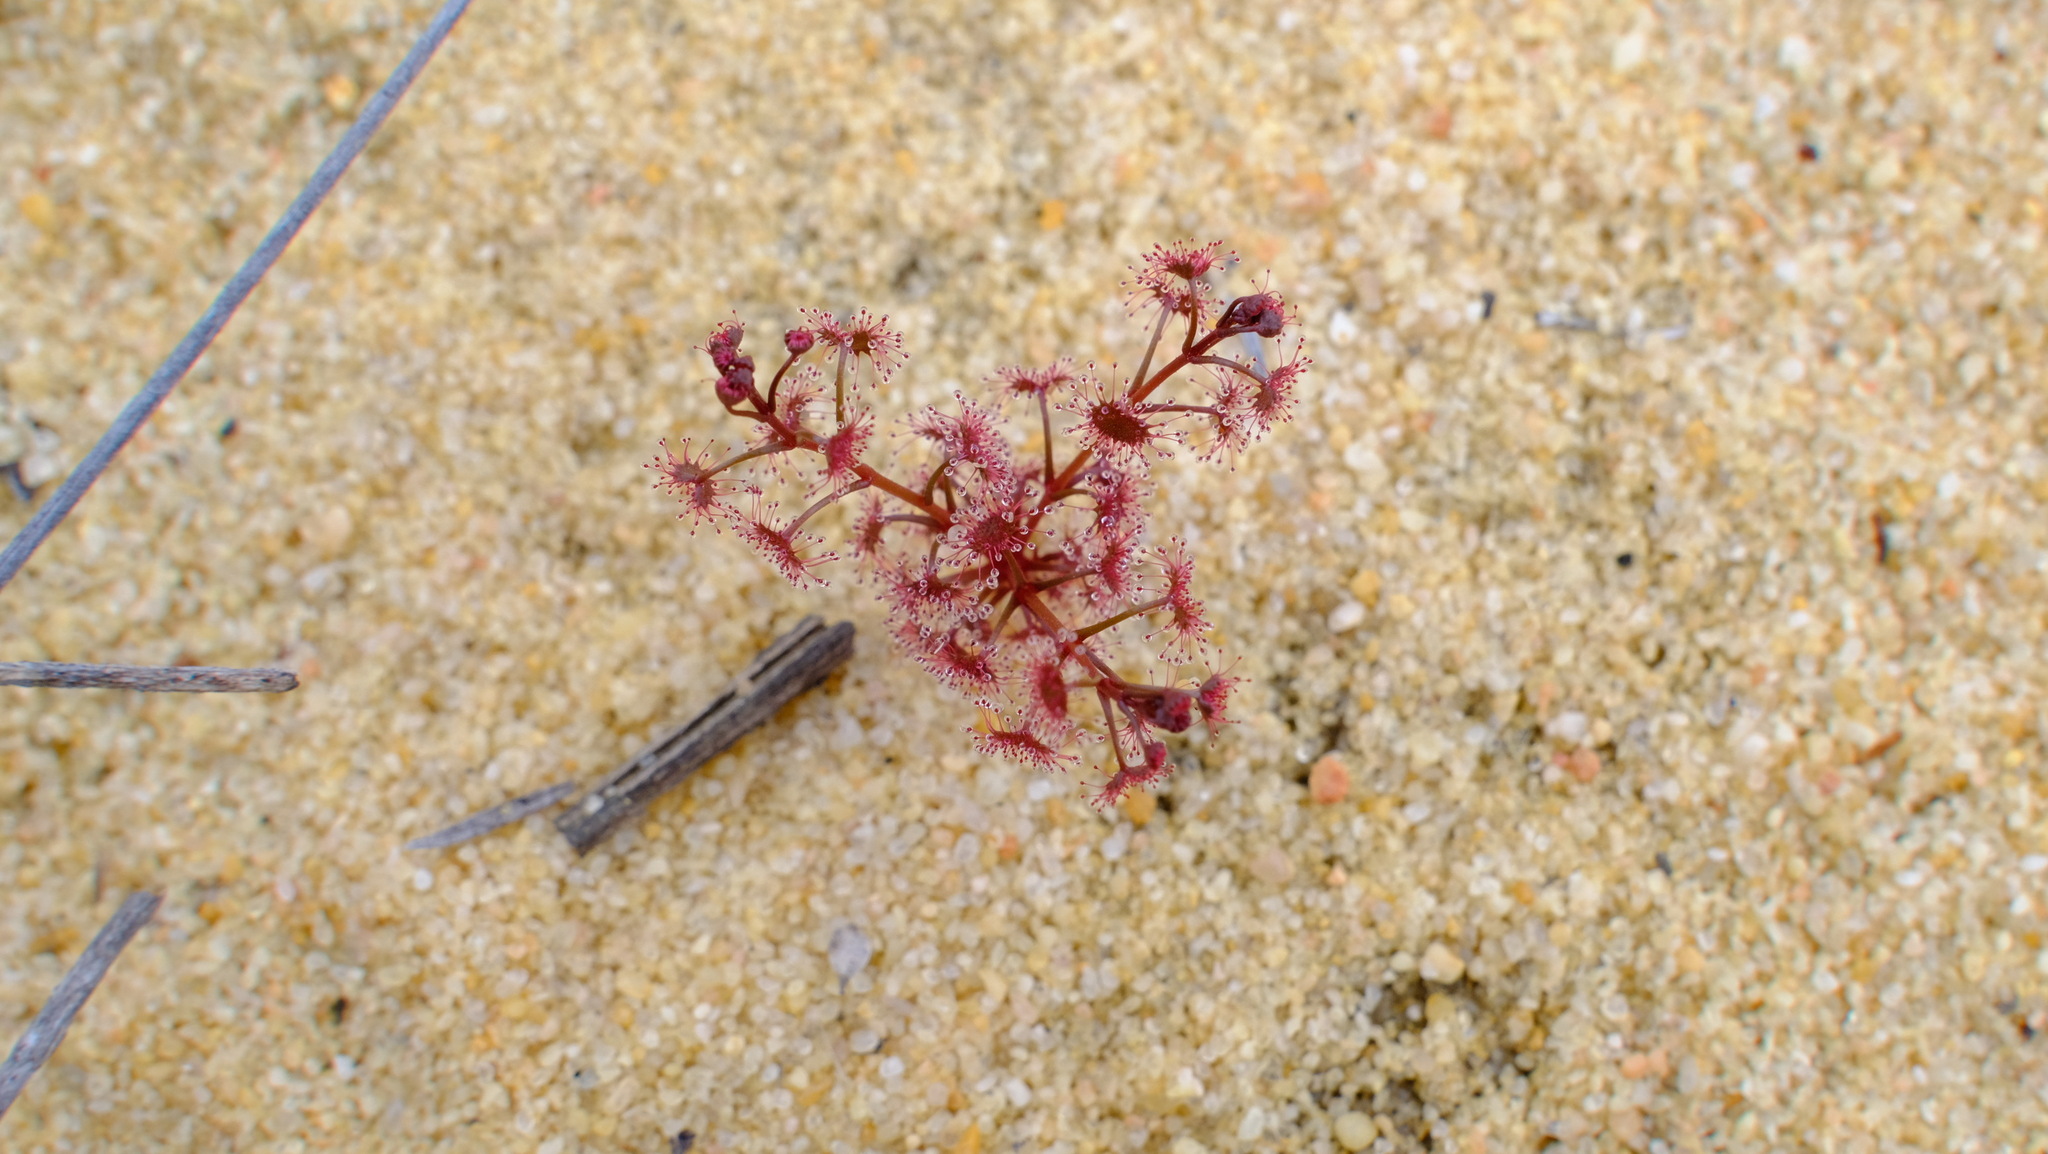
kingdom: Plantae
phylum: Tracheophyta
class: Magnoliopsida
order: Caryophyllales
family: Droseraceae
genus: Drosera
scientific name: Drosera stolonifera
